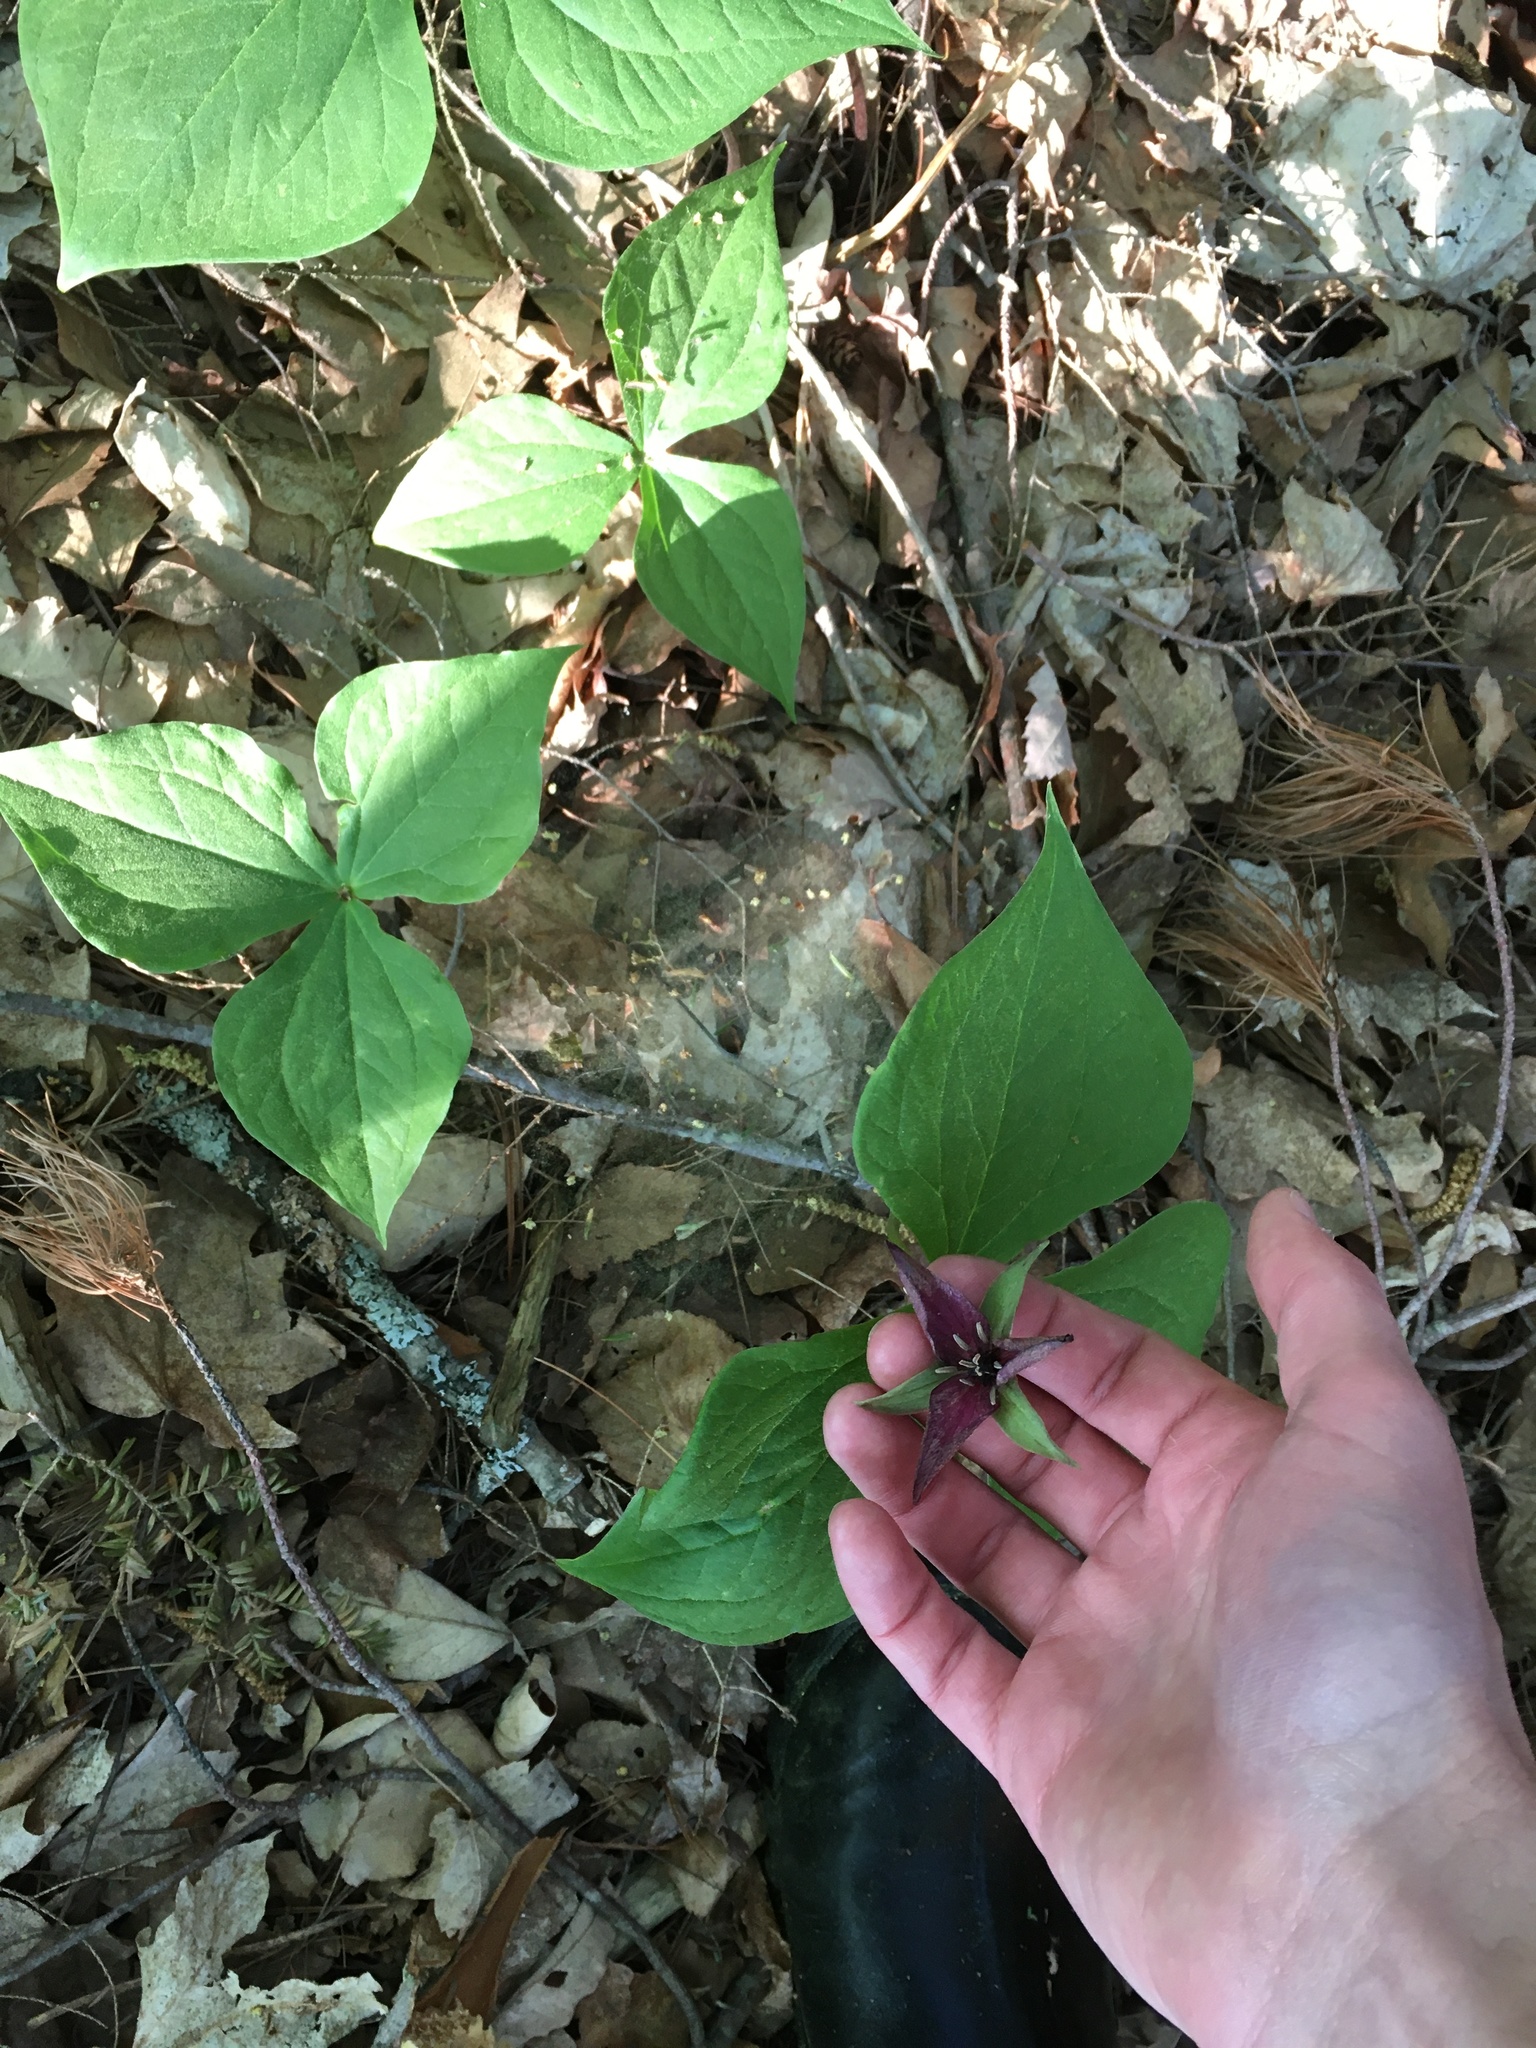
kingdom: Plantae
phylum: Tracheophyta
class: Liliopsida
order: Liliales
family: Melanthiaceae
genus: Trillium
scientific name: Trillium erectum
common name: Purple trillium
